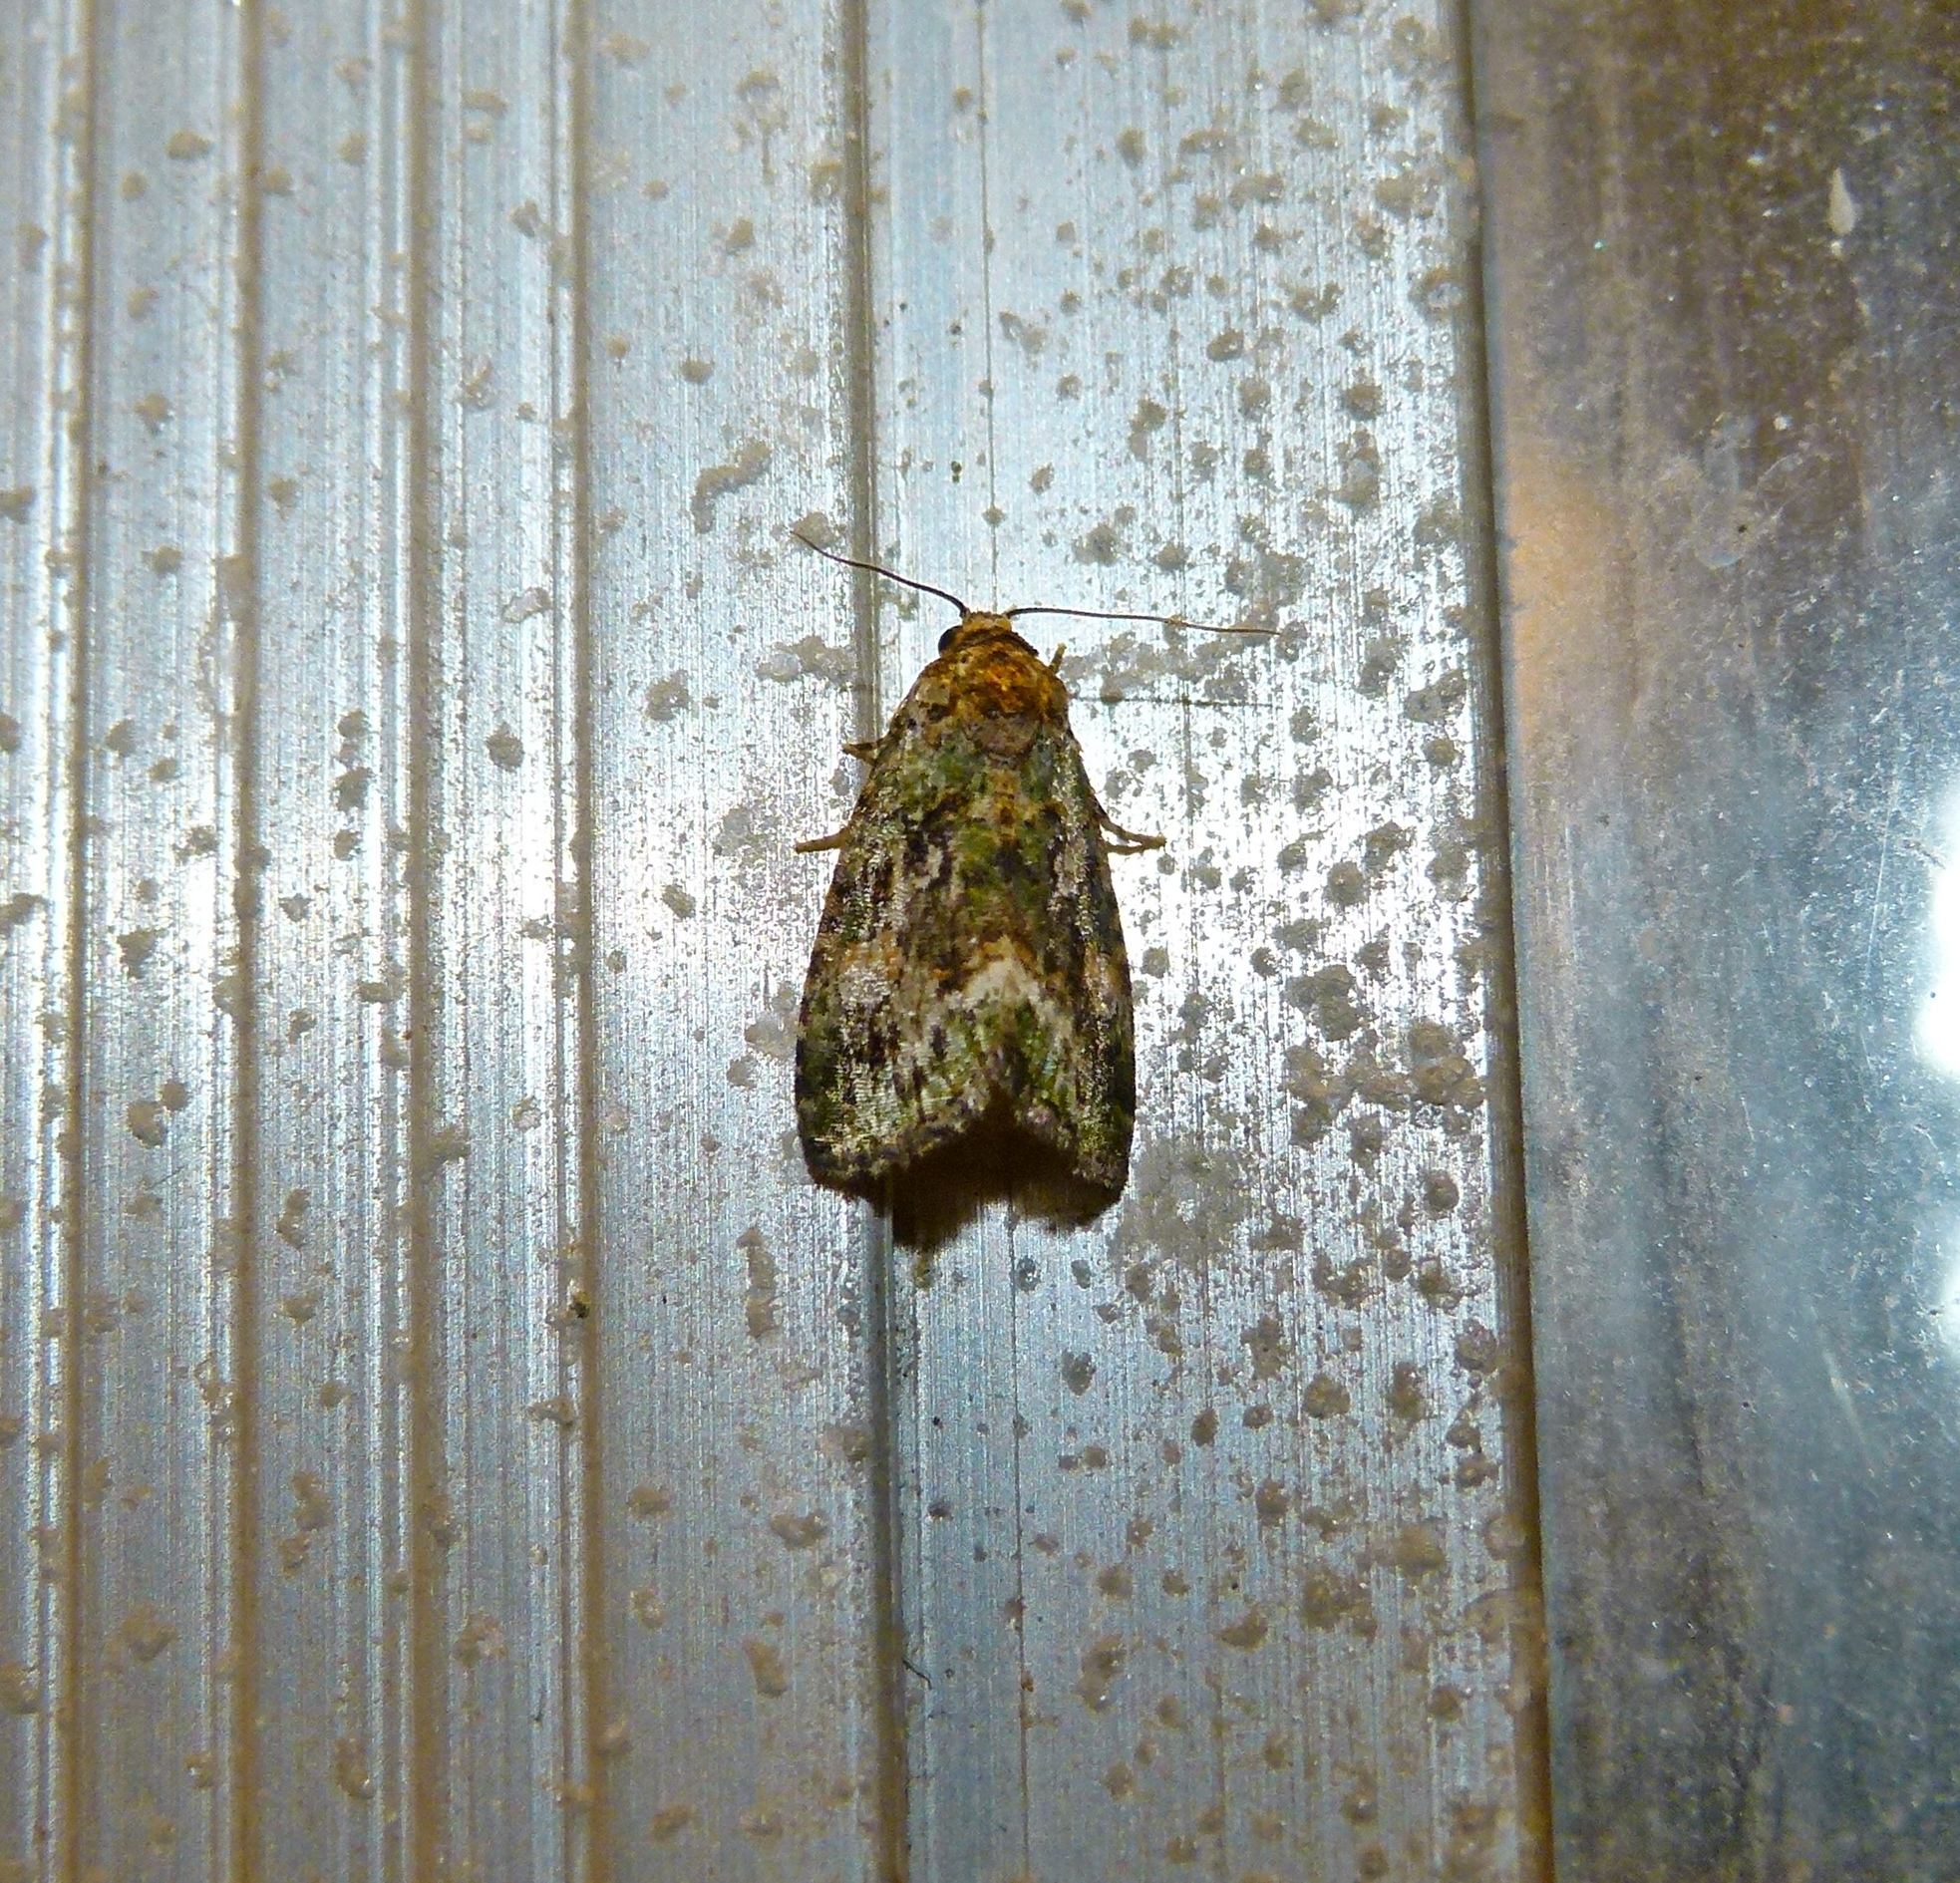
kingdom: Animalia
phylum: Arthropoda
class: Insecta
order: Lepidoptera
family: Noctuidae
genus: Lithacodia
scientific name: Lithacodia musta
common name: Small mossy glyph
